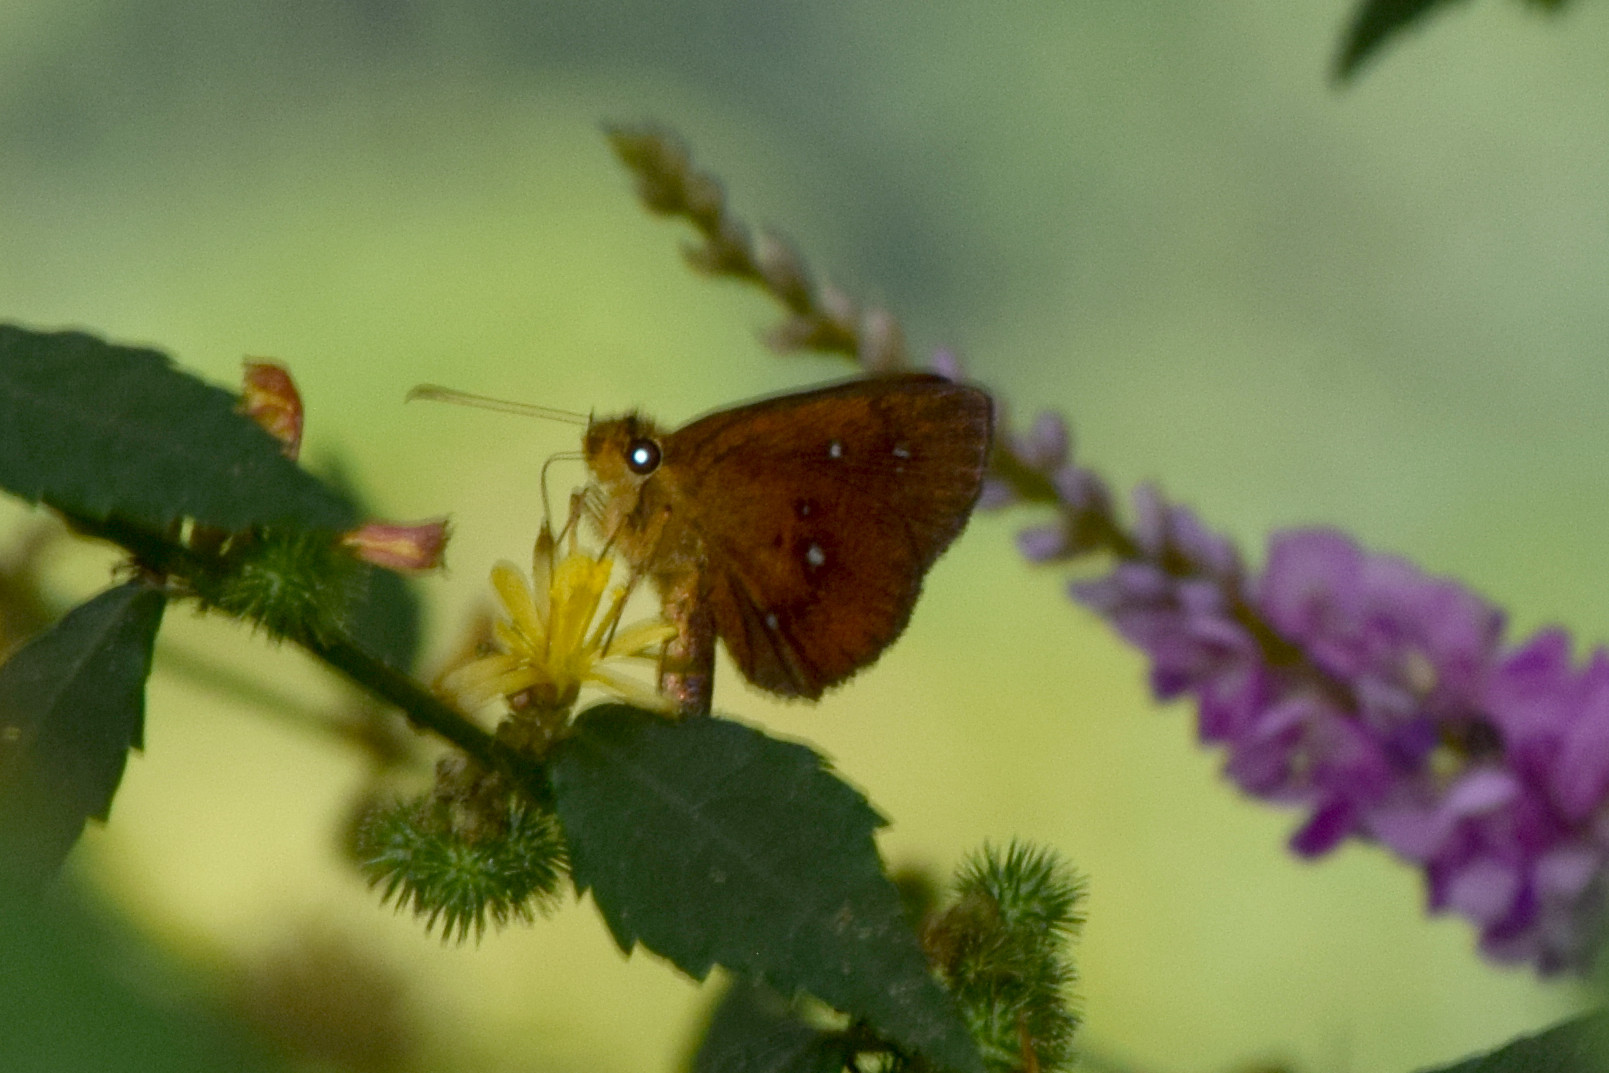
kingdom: Animalia
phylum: Arthropoda
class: Insecta
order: Lepidoptera
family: Hesperiidae
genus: Iambrix
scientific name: Iambrix salsala
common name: Chestnut bob
